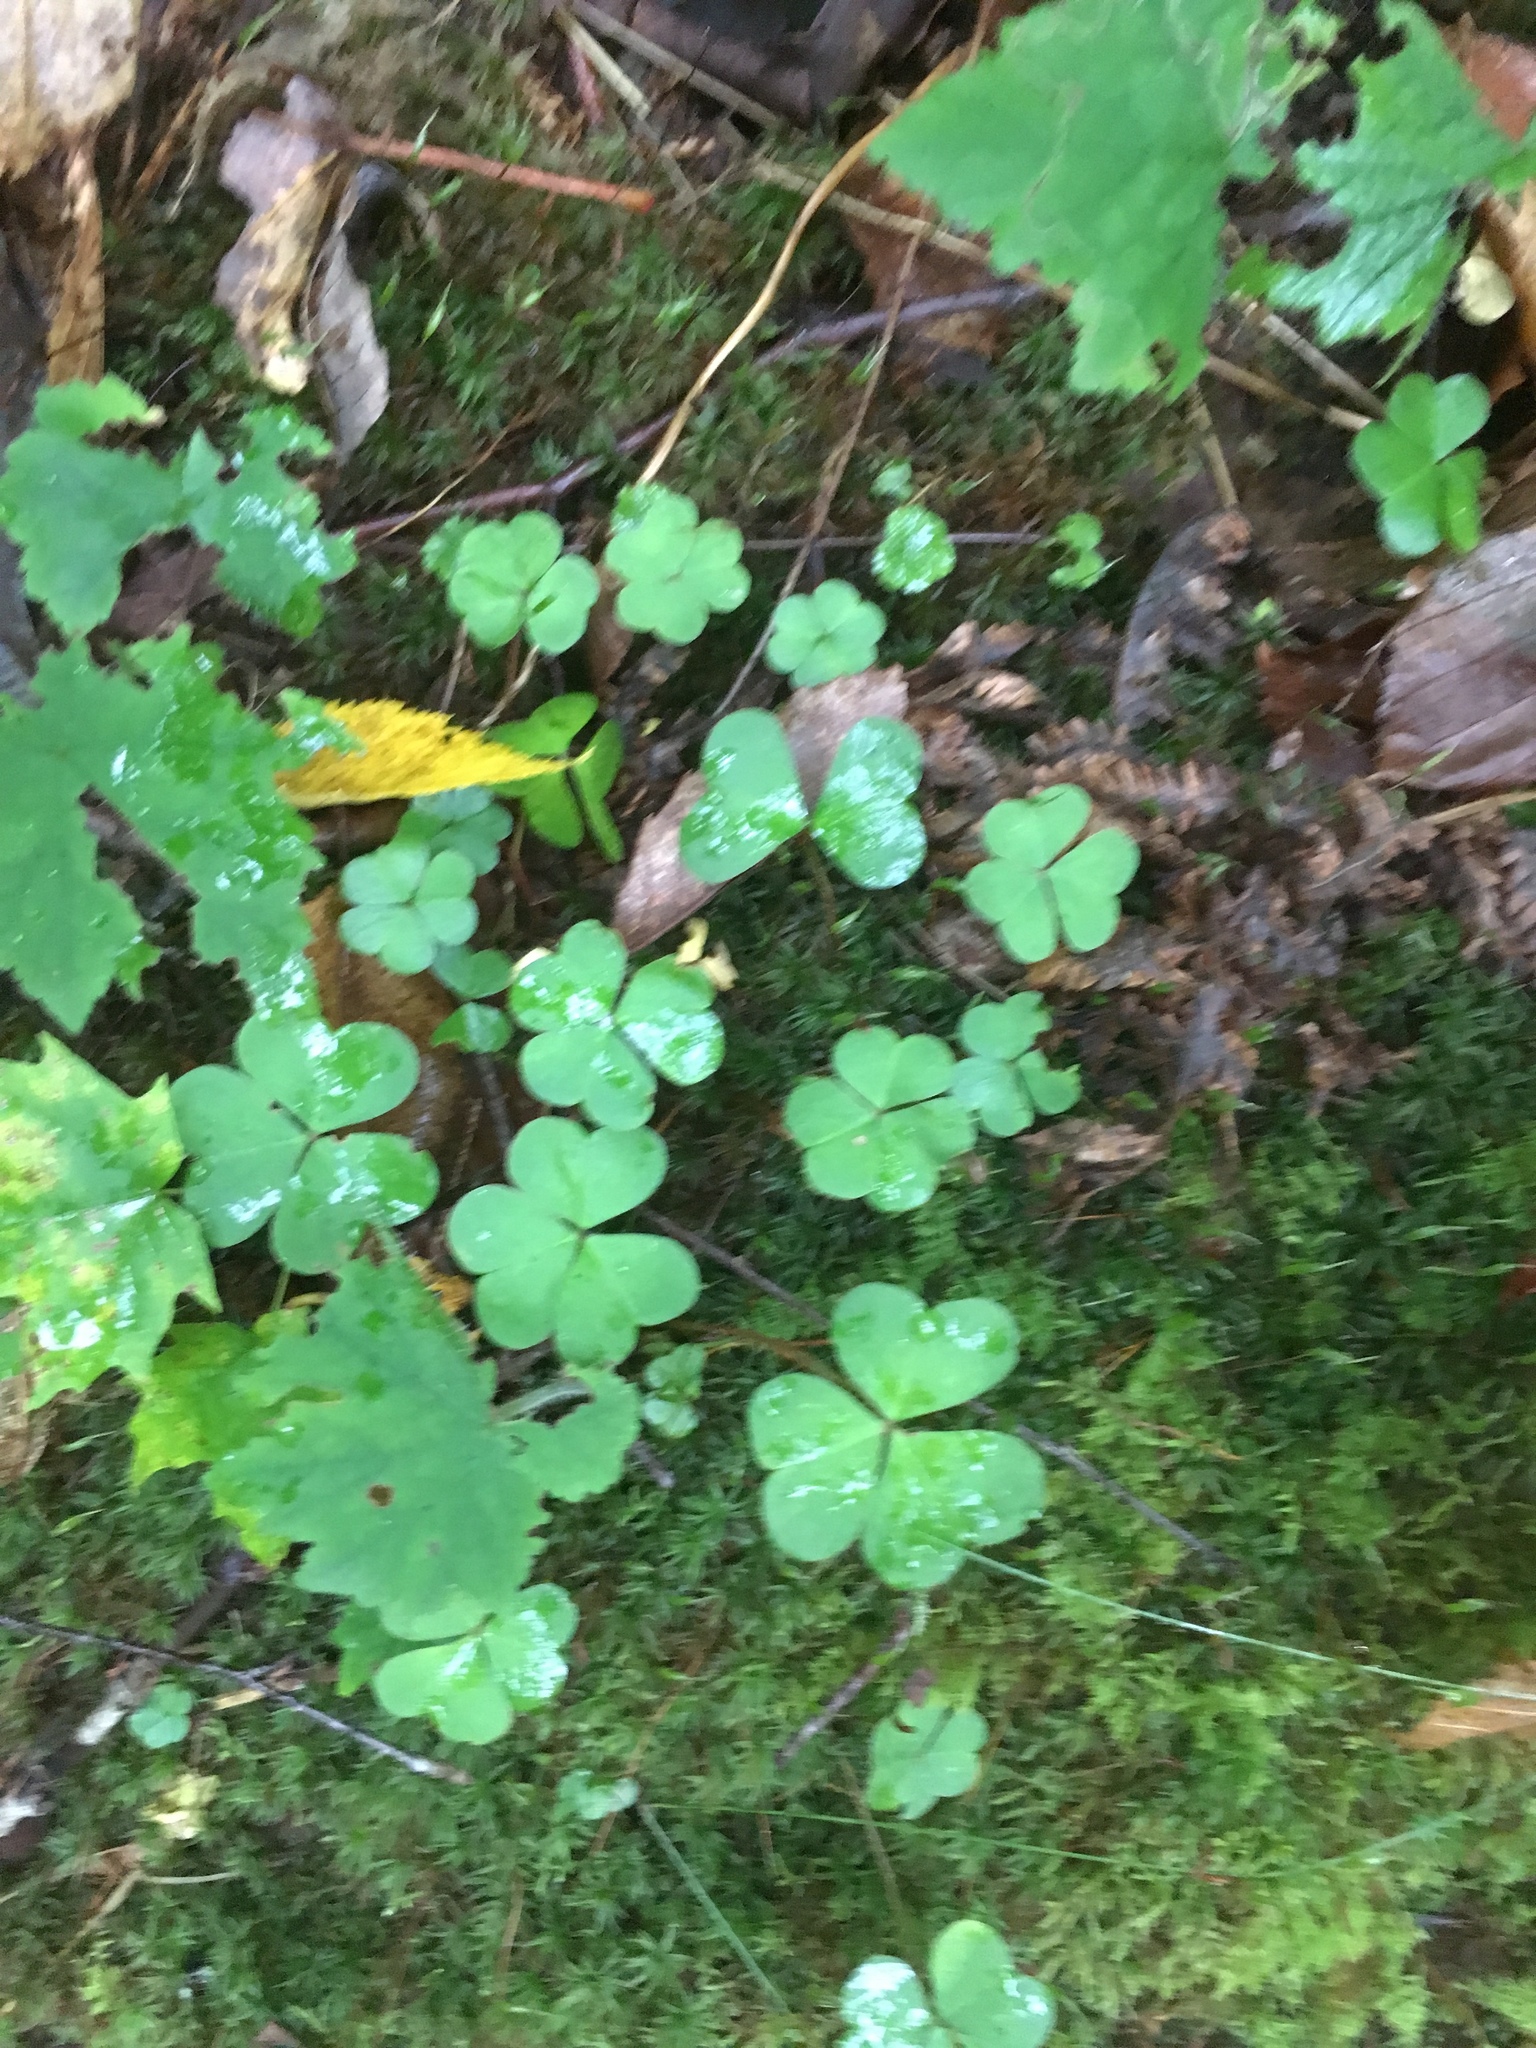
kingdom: Plantae
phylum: Tracheophyta
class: Magnoliopsida
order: Oxalidales
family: Oxalidaceae
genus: Oxalis
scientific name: Oxalis montana
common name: American wood-sorrel
